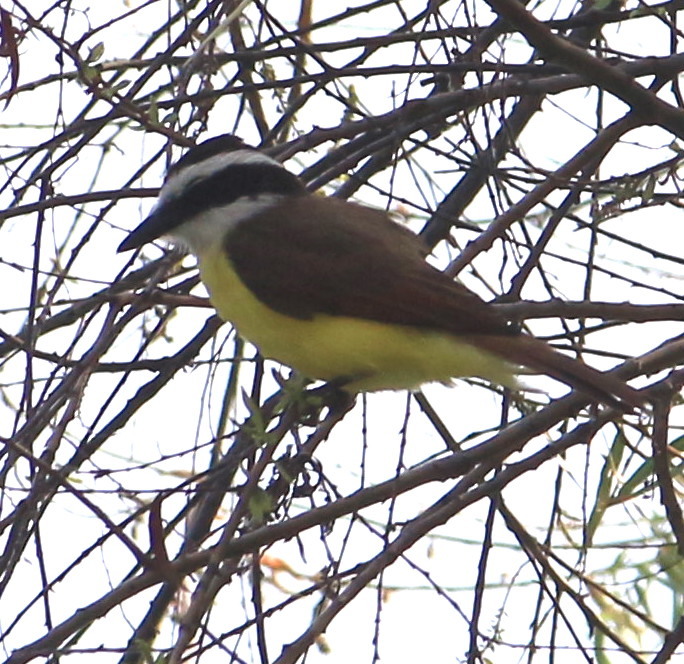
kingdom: Animalia
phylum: Chordata
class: Aves
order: Passeriformes
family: Tyrannidae
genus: Pitangus
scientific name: Pitangus sulphuratus
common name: Great kiskadee
